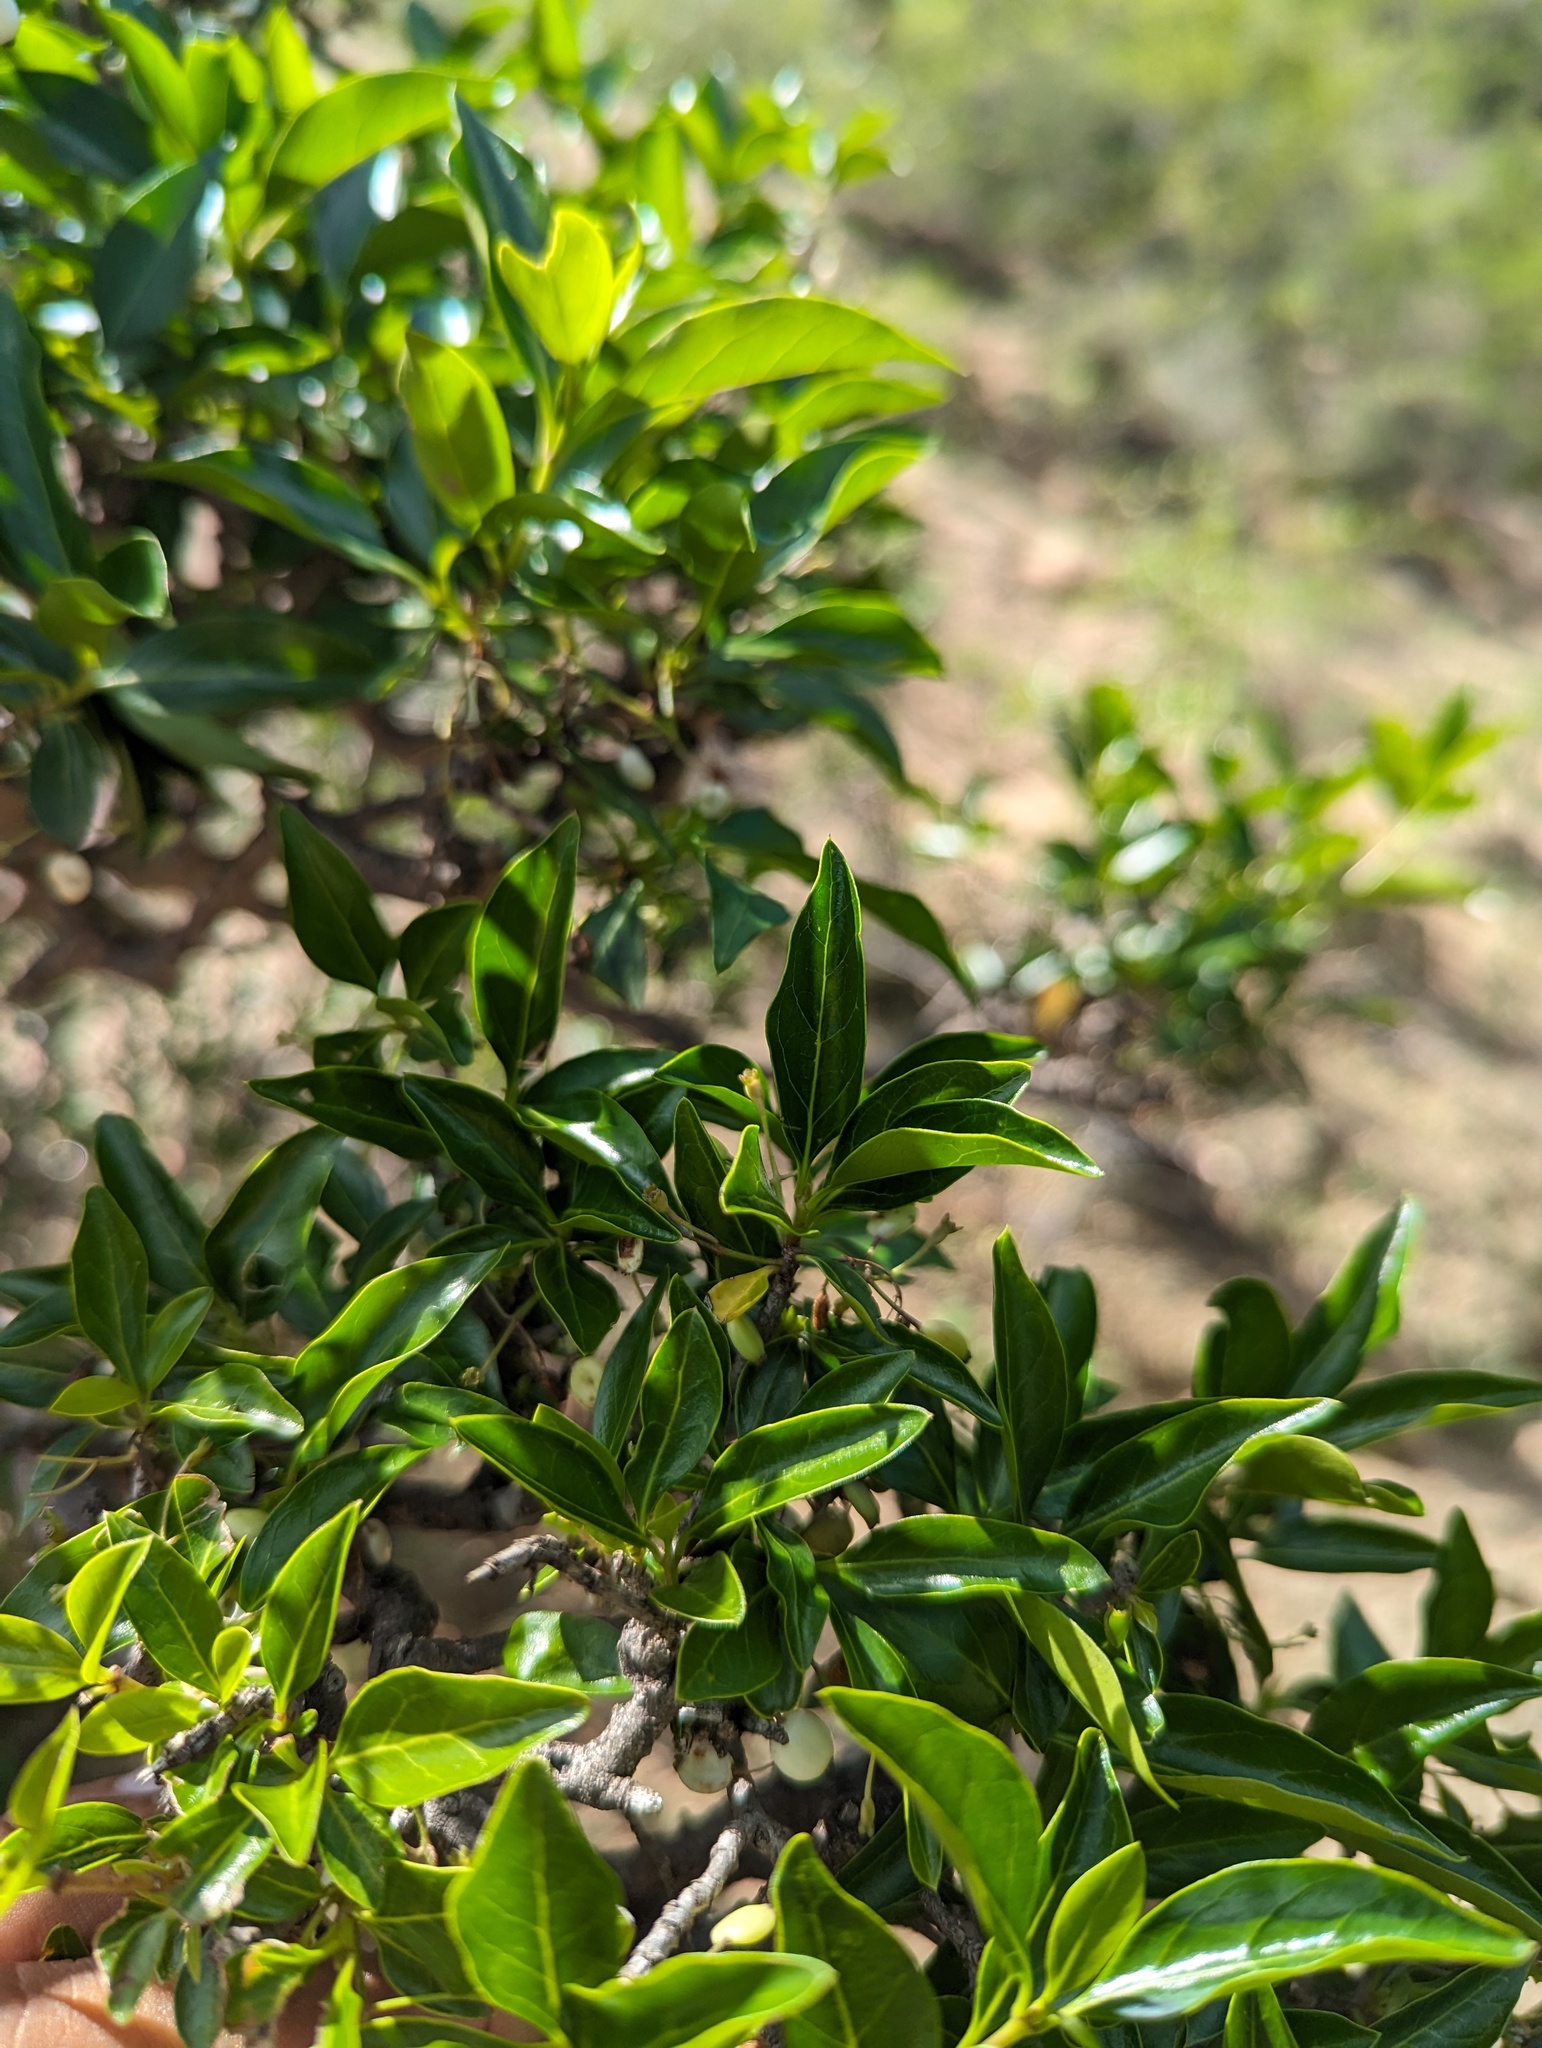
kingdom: Plantae
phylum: Tracheophyta
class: Magnoliopsida
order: Gentianales
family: Rubiaceae
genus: Chiococca
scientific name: Chiococca alba
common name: Snowberry
